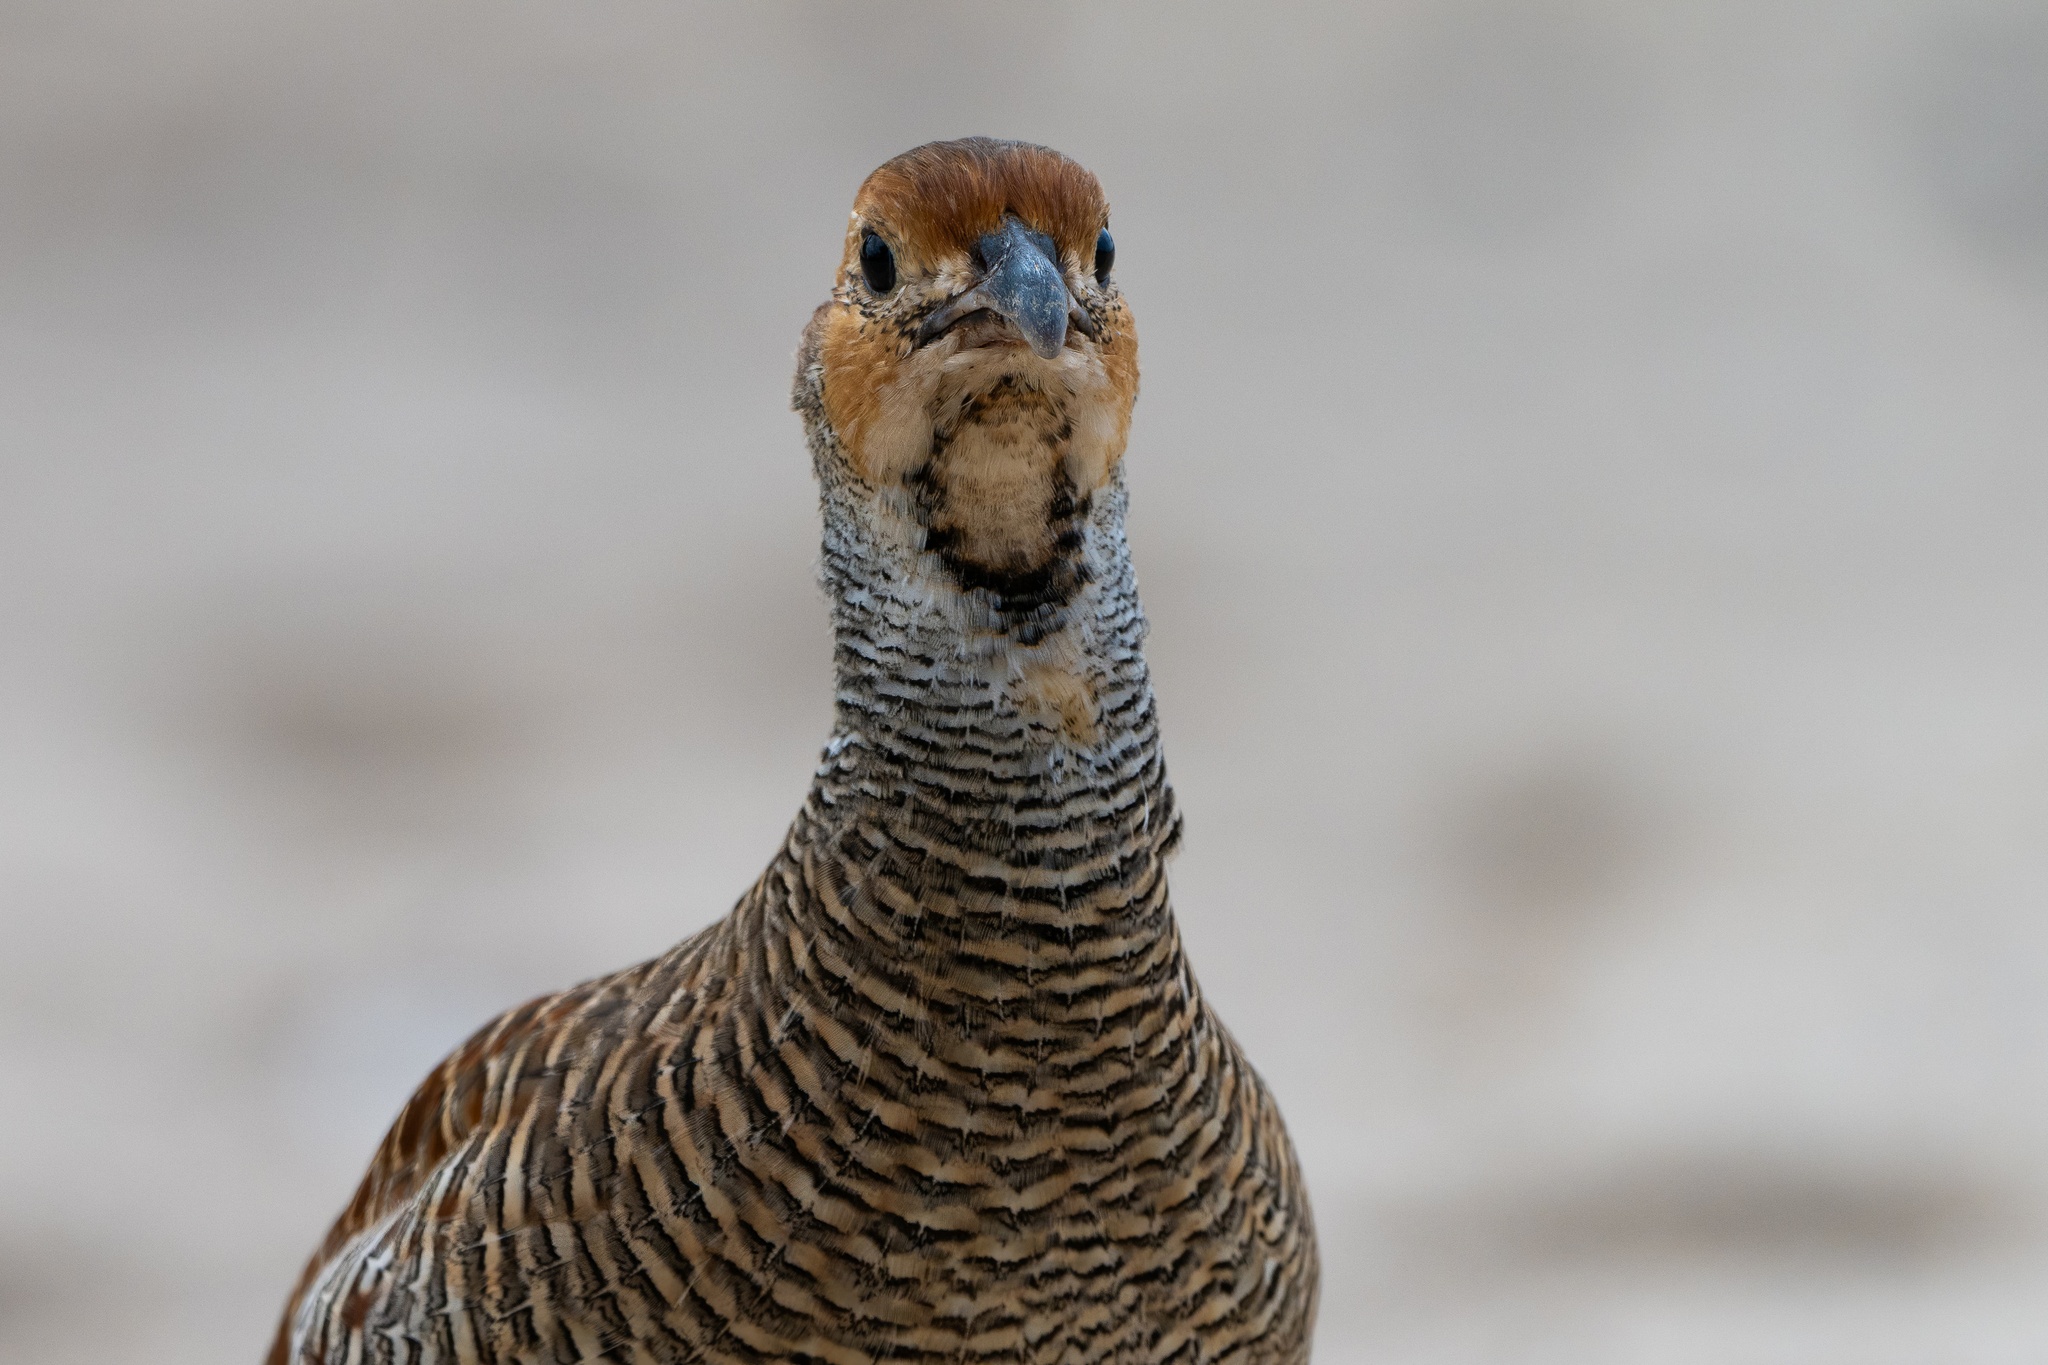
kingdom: Animalia
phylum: Chordata
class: Aves
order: Galliformes
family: Phasianidae
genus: Ortygornis
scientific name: Ortygornis pondicerianus
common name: Grey francolin
